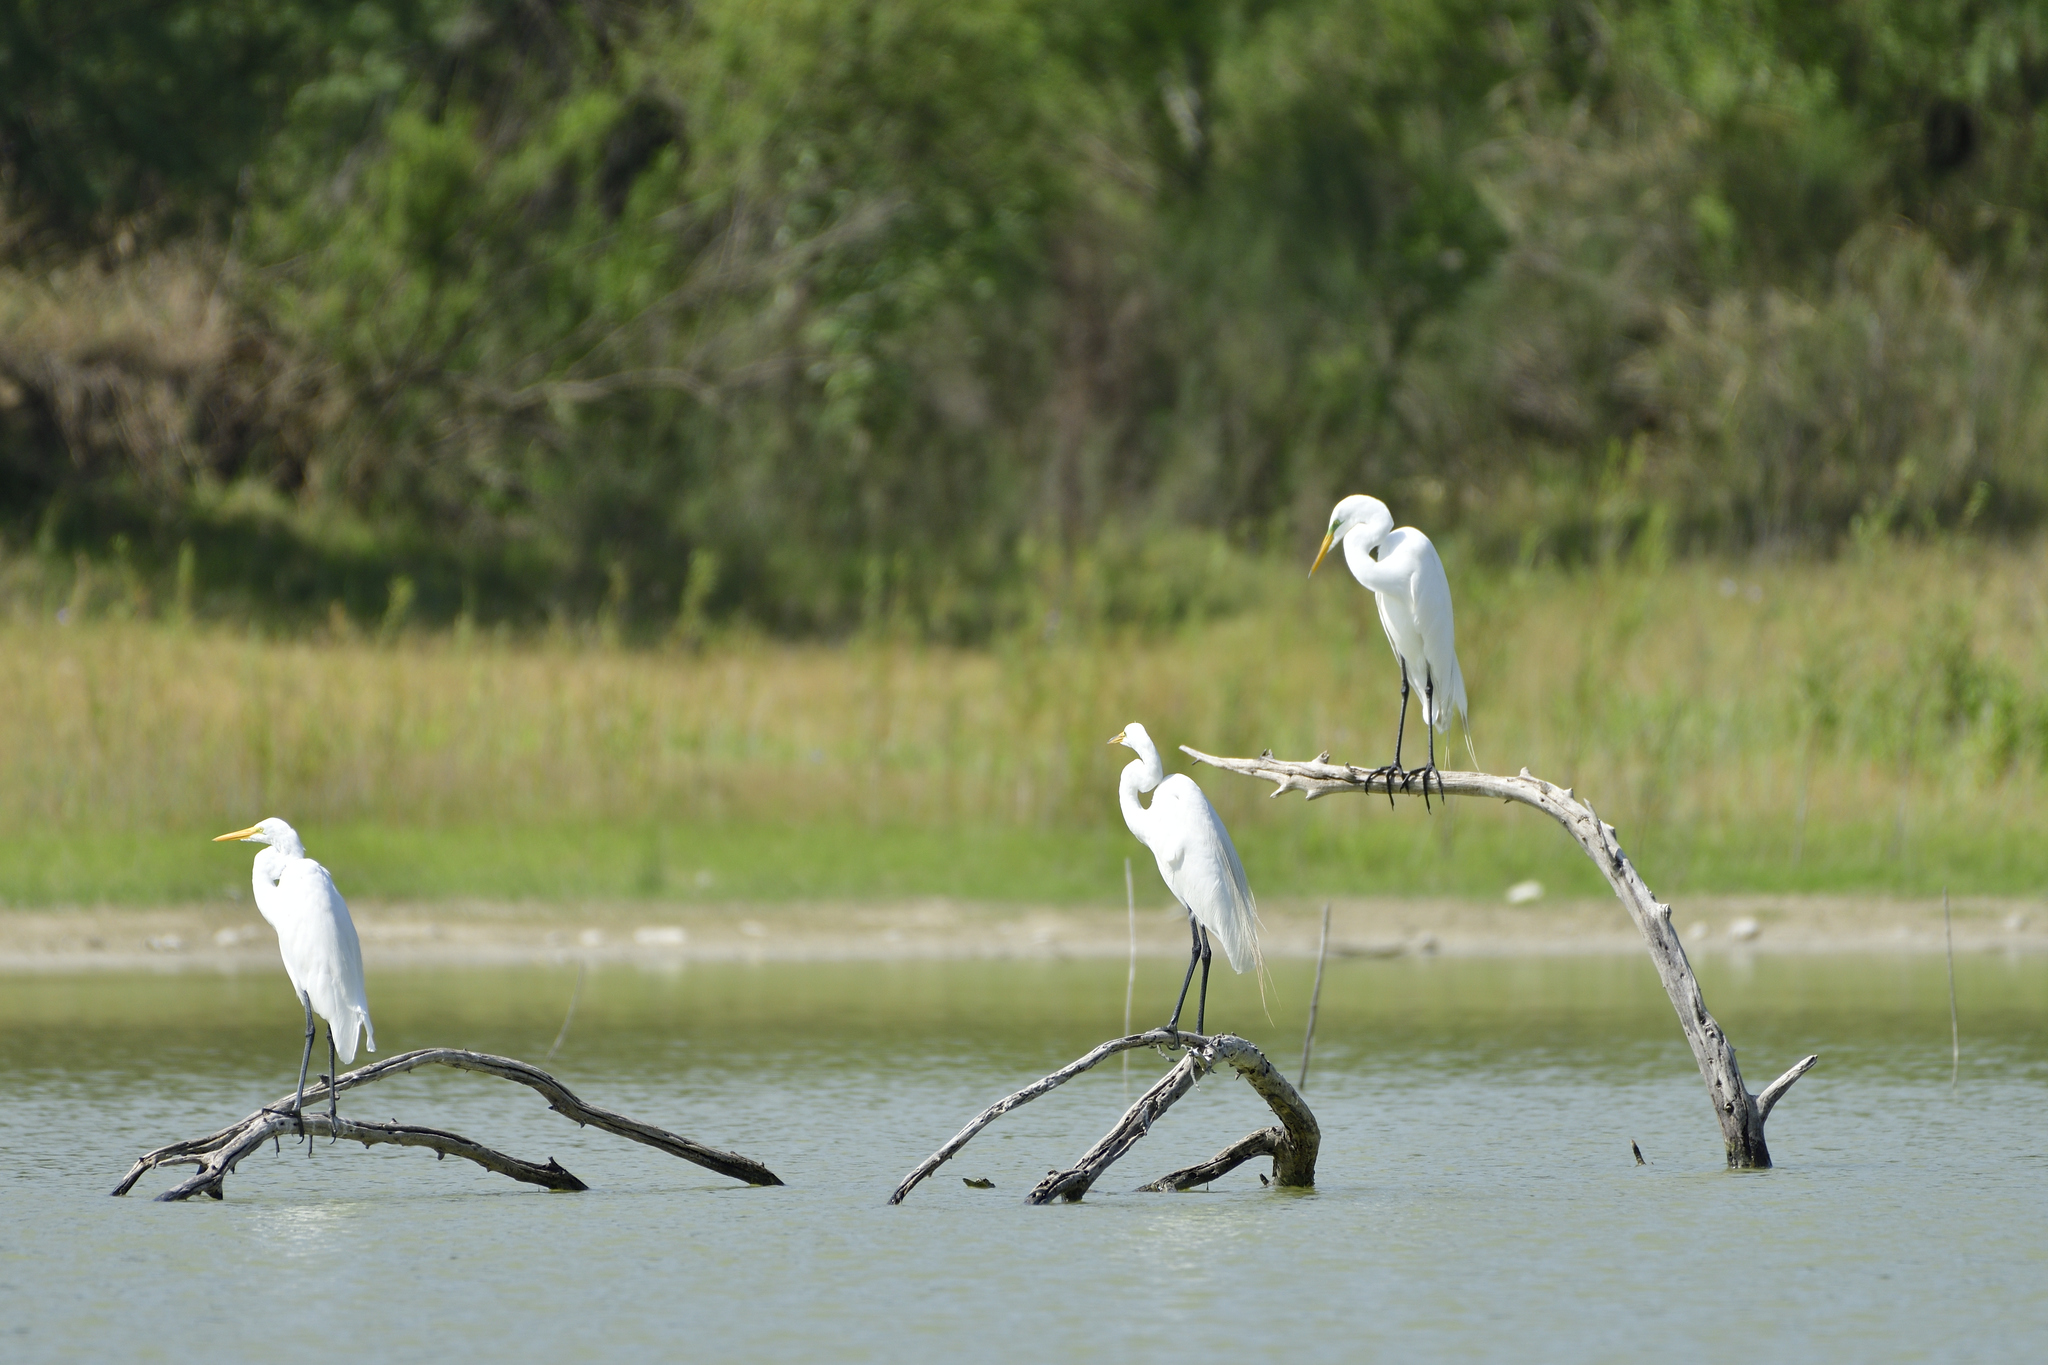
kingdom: Animalia
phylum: Chordata
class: Aves
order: Pelecaniformes
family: Ardeidae
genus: Ardea
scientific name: Ardea alba
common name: Great egret
